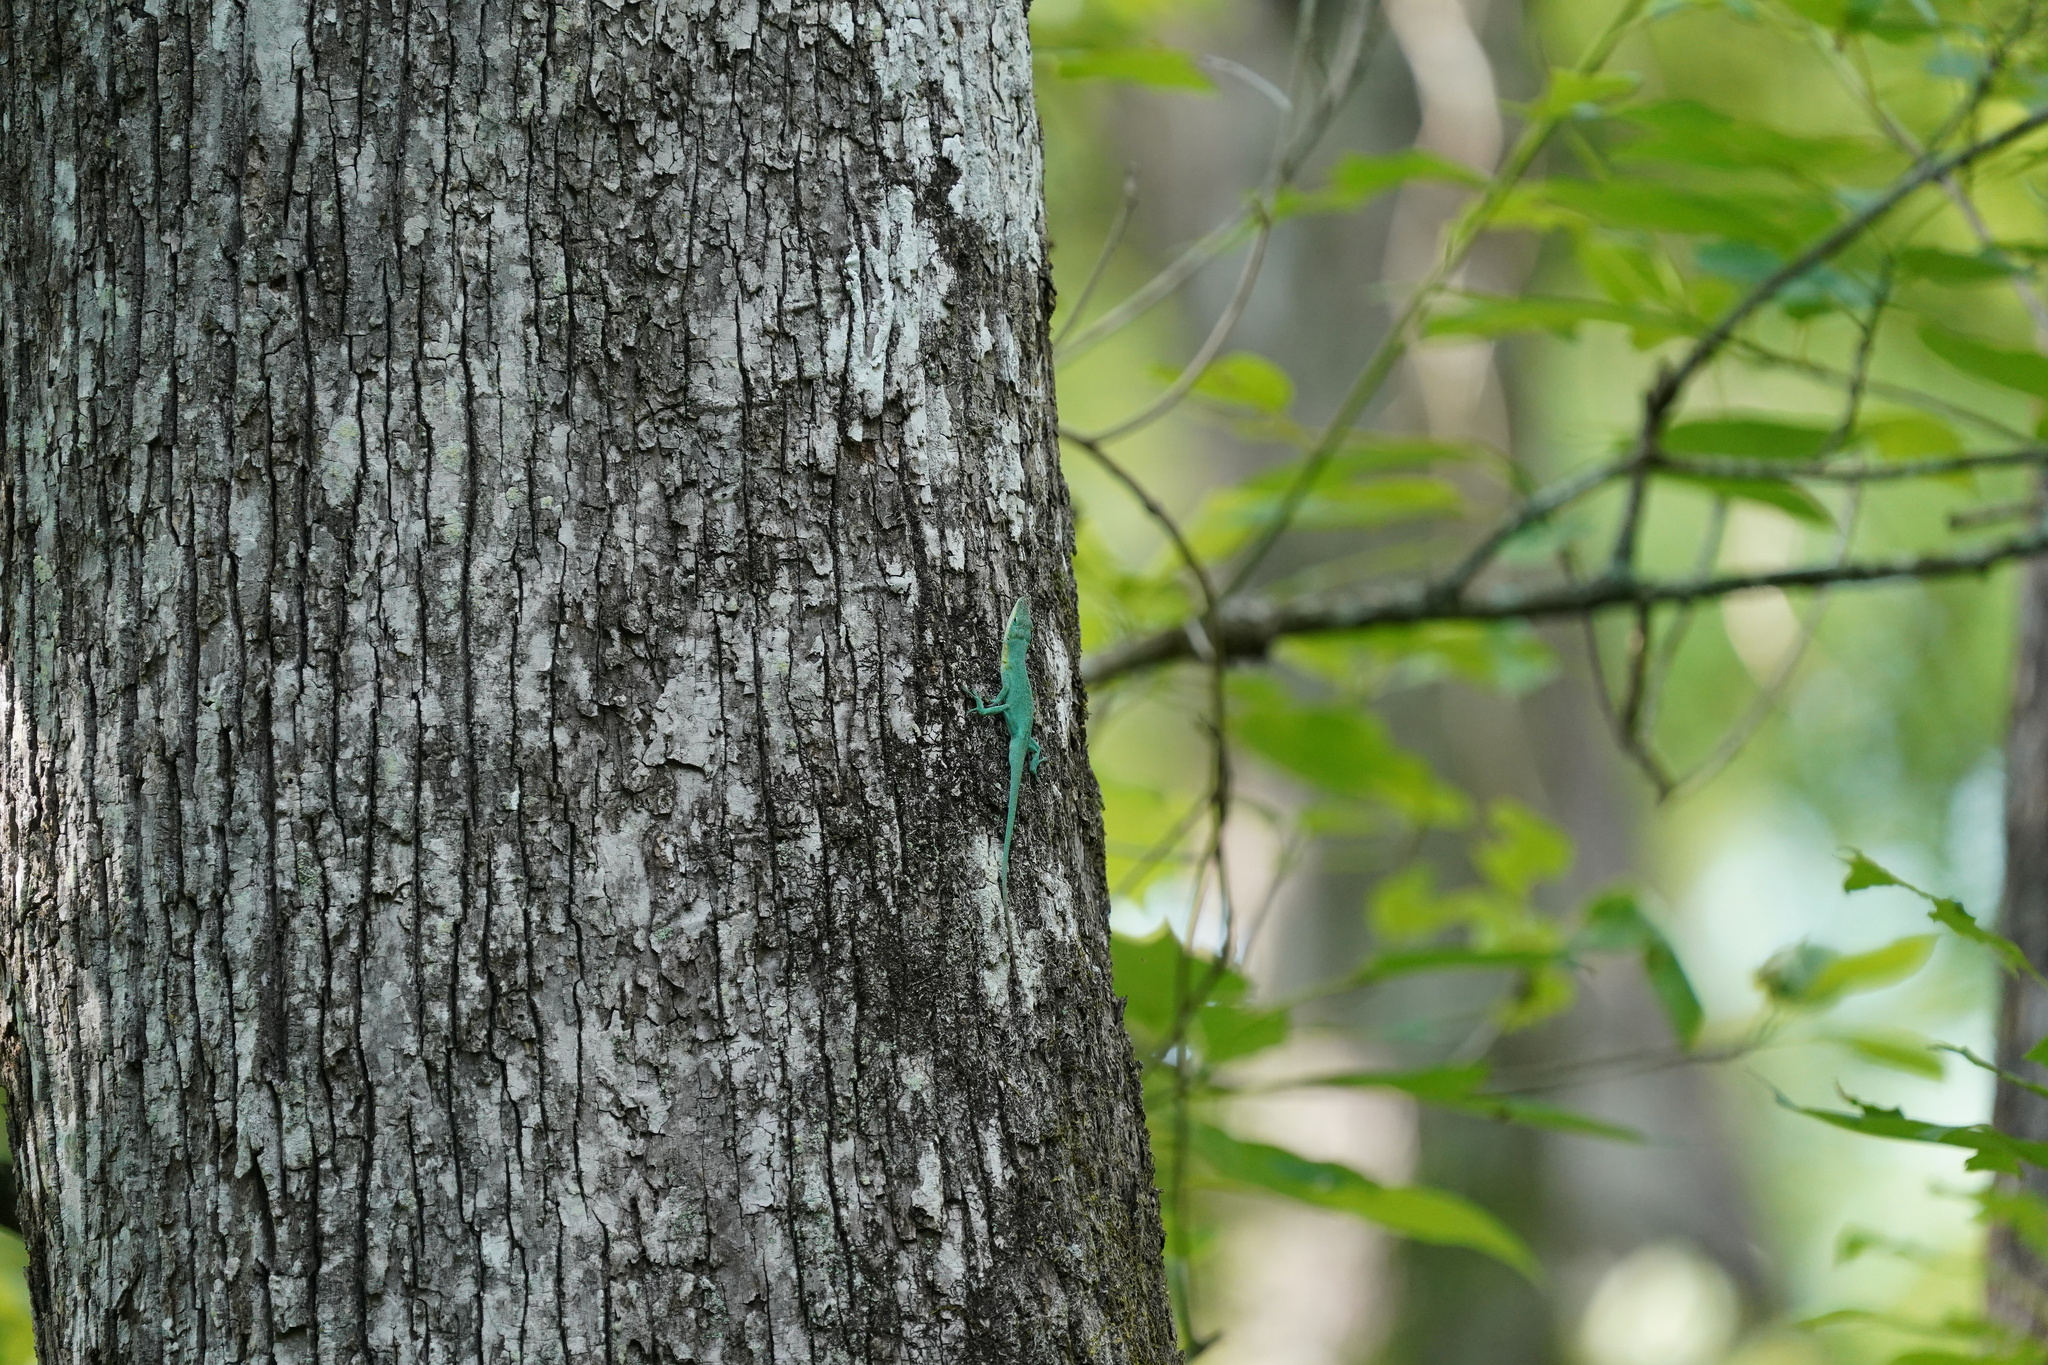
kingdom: Animalia
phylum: Chordata
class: Squamata
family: Dactyloidae
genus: Anolis
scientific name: Anolis carolinensis
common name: Green anole
